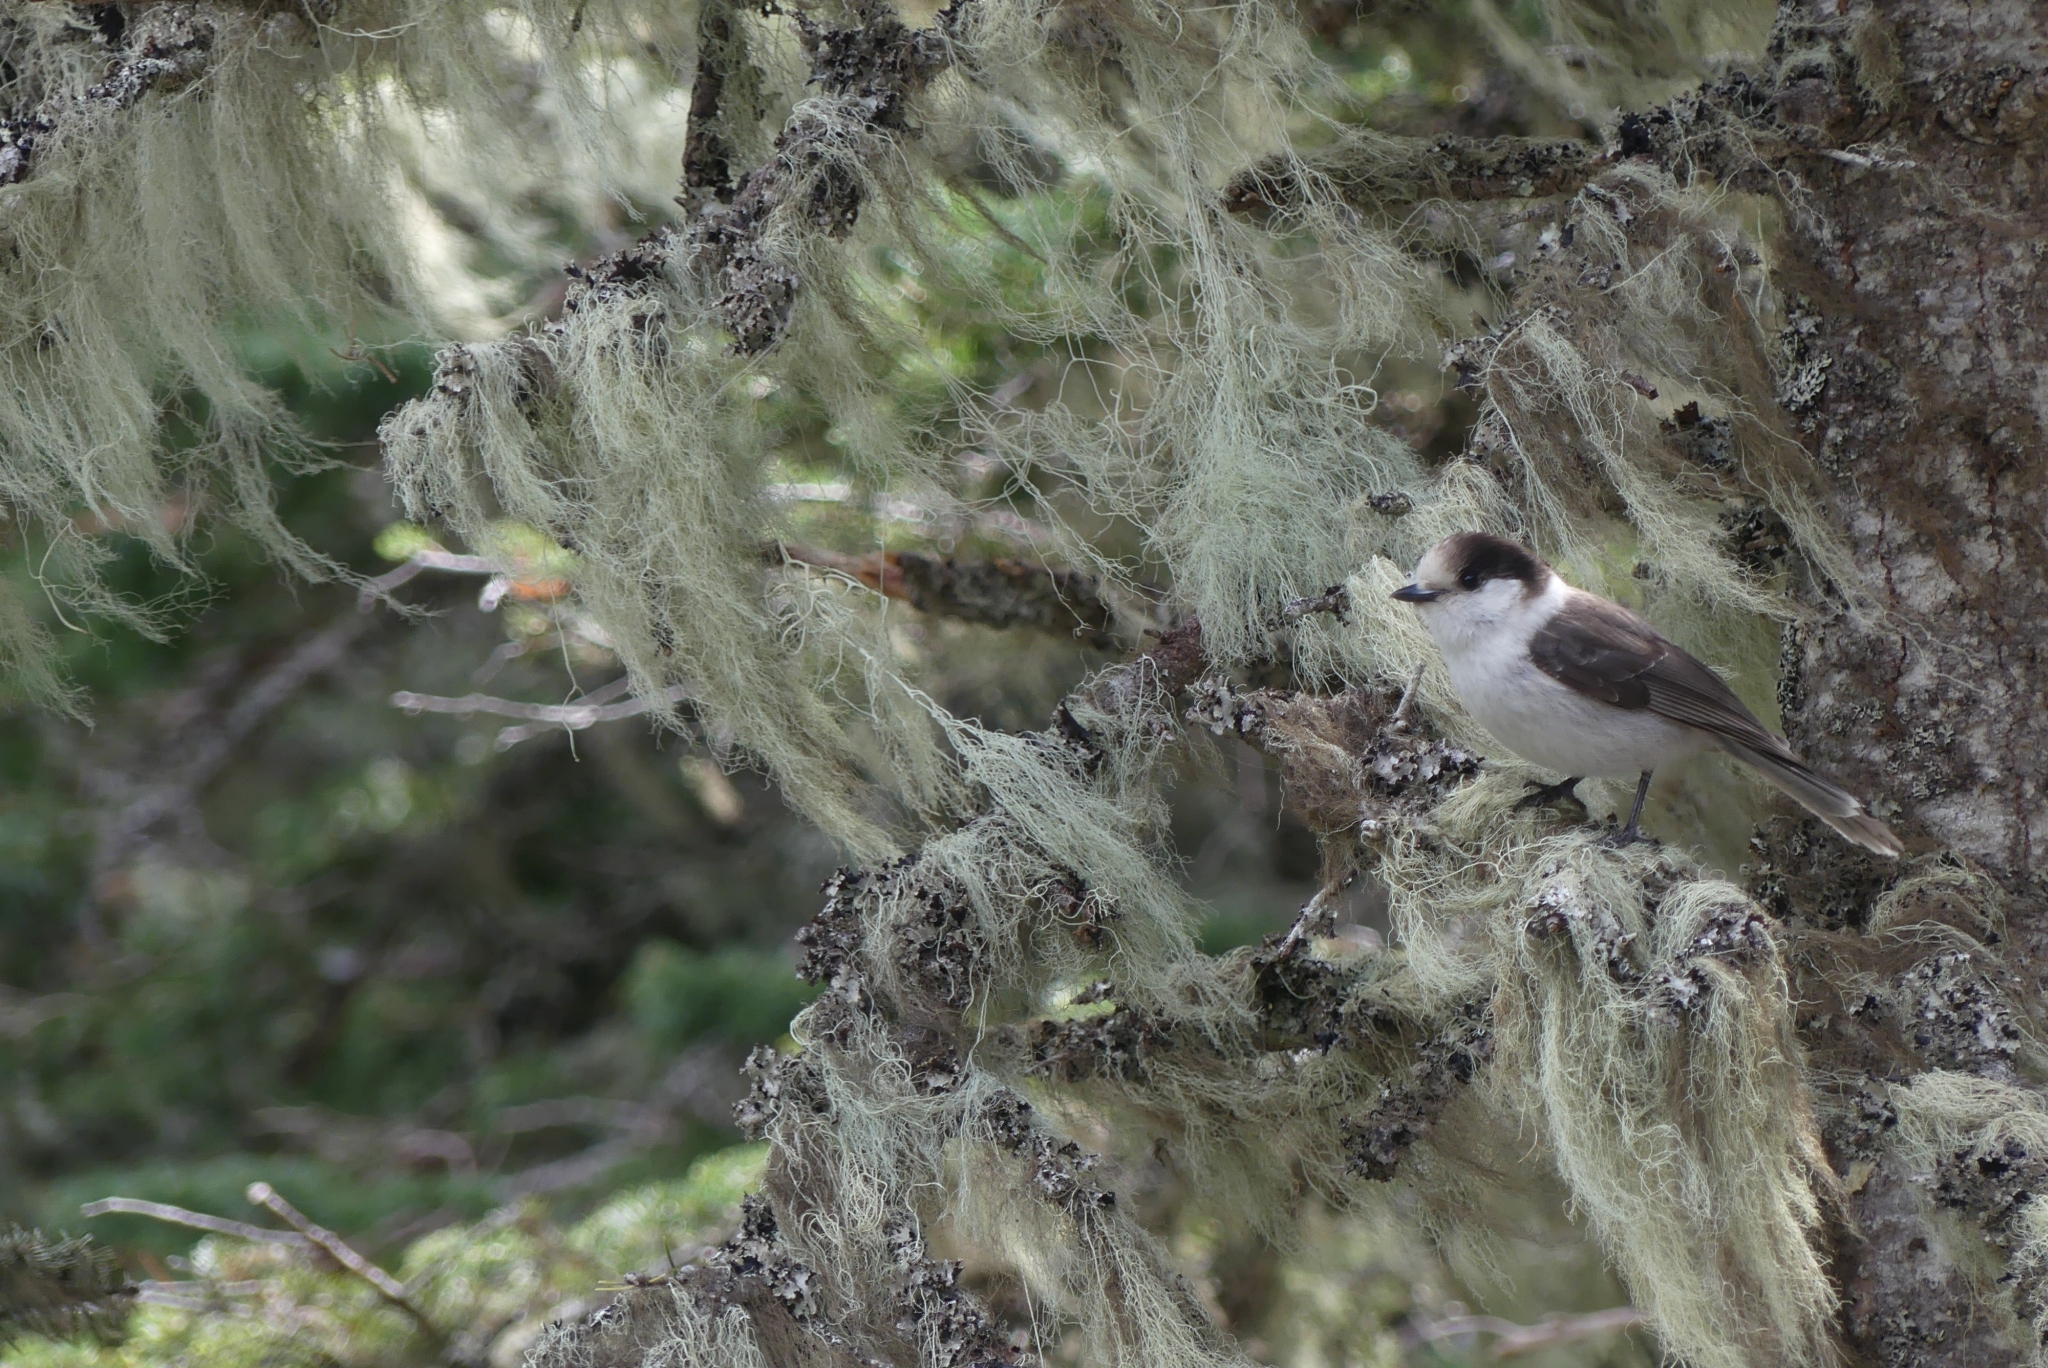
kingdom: Animalia
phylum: Chordata
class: Aves
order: Passeriformes
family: Corvidae
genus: Perisoreus
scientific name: Perisoreus canadensis
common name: Gray jay
